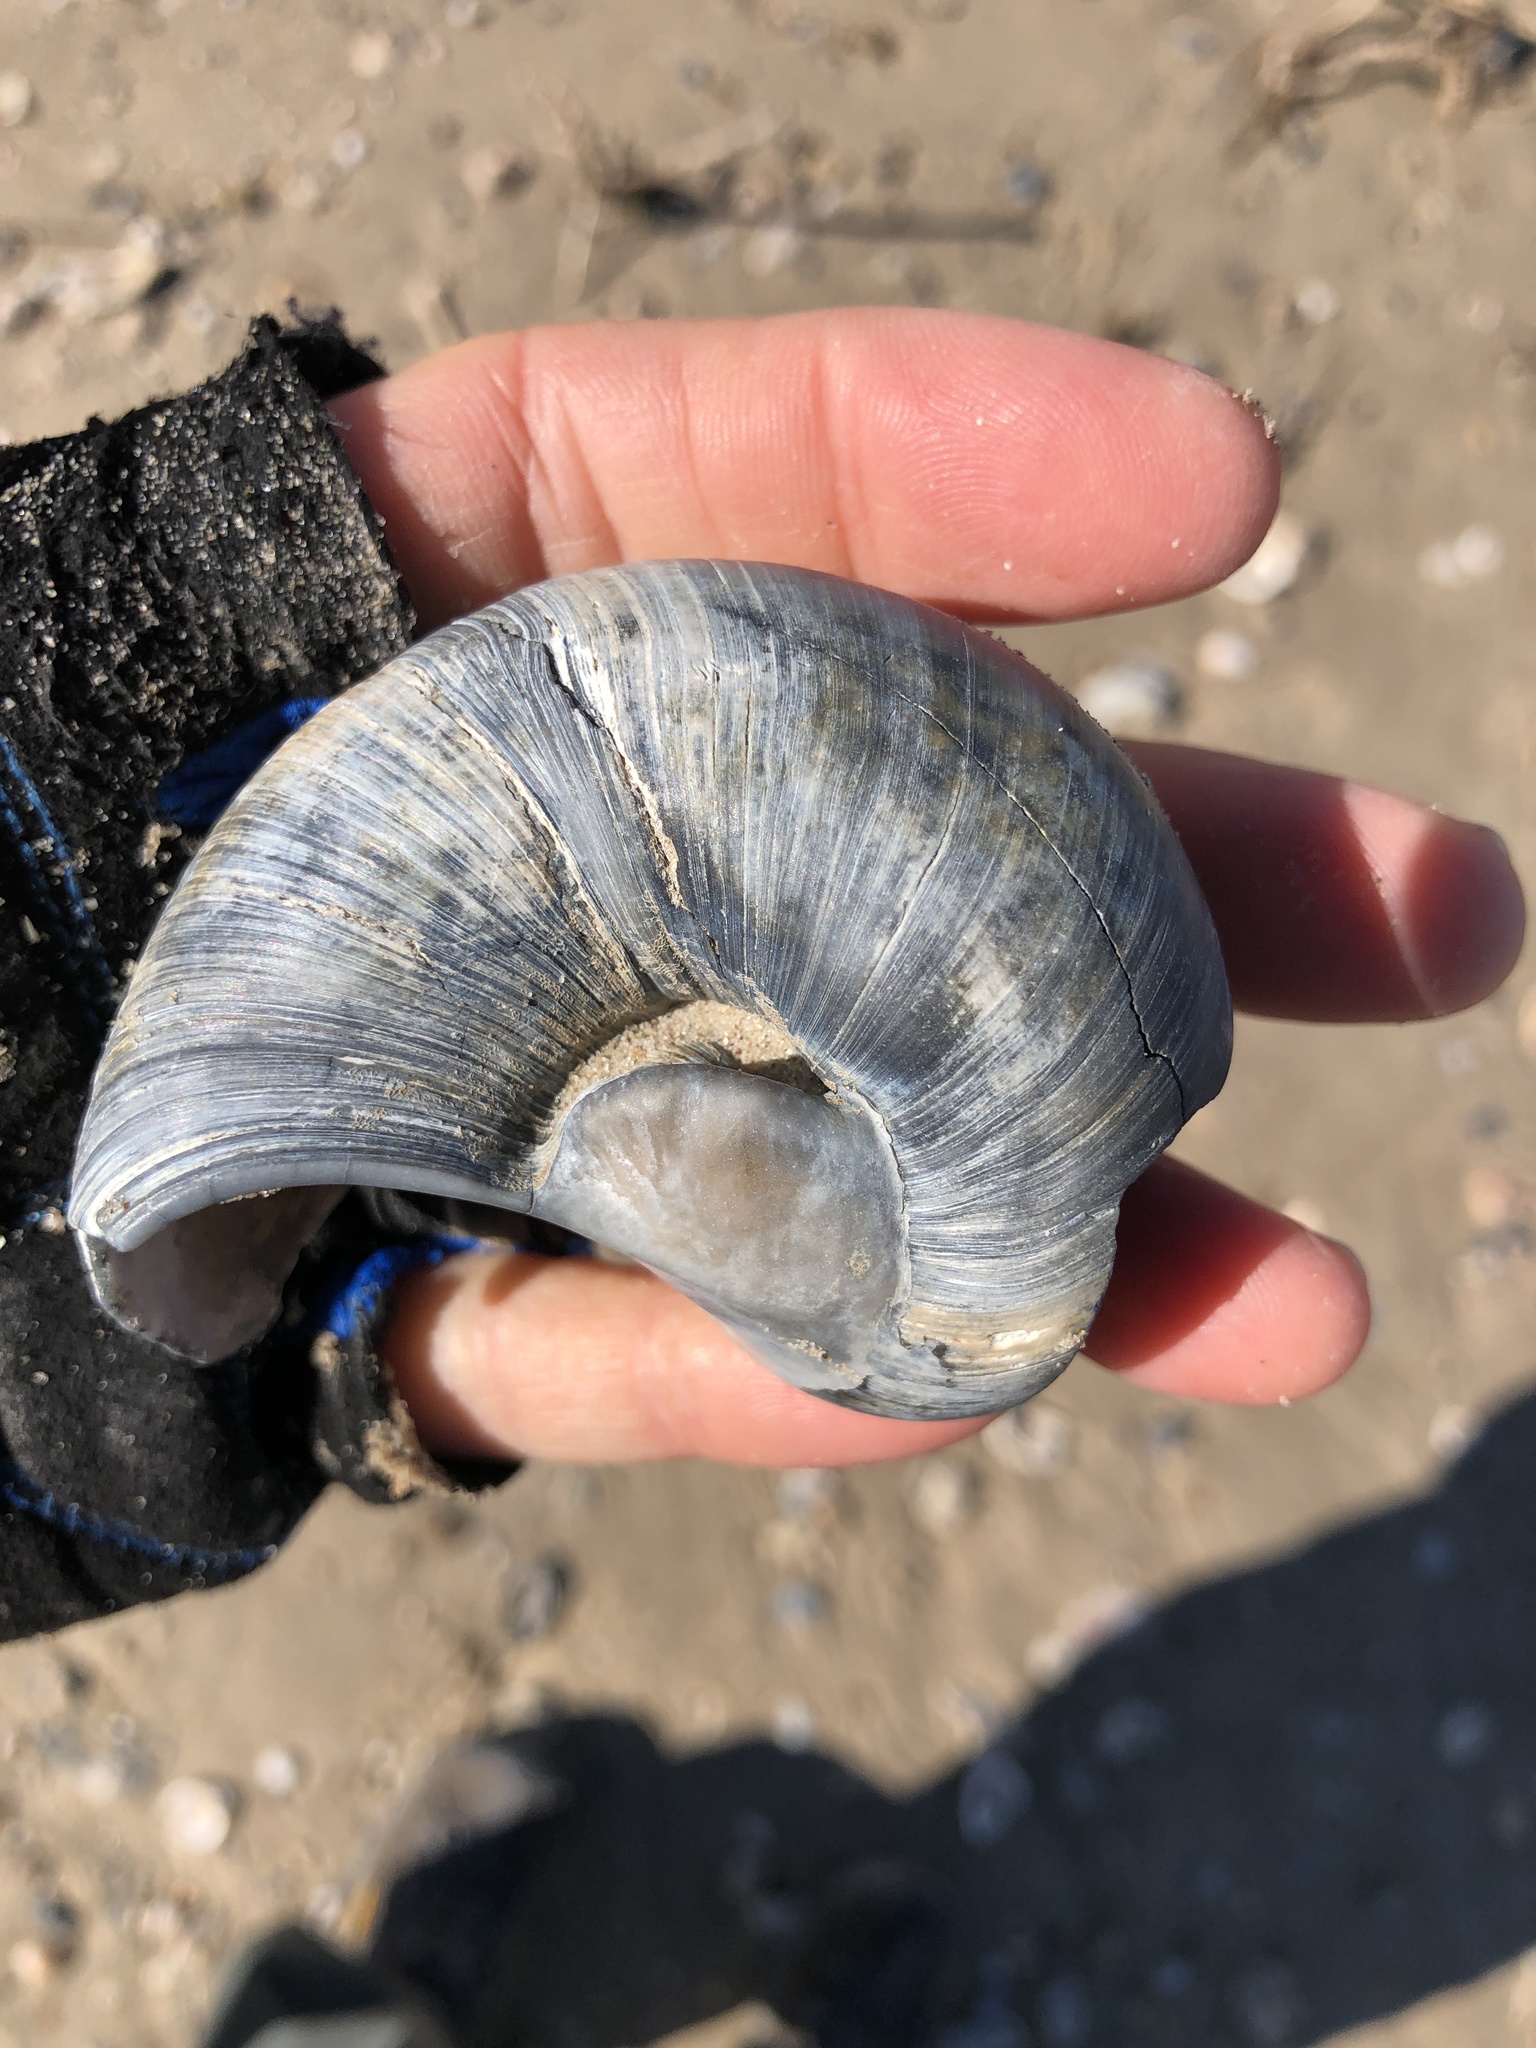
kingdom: Animalia
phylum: Mollusca
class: Gastropoda
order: Littorinimorpha
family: Naticidae
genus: Neverita
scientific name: Neverita duplicata
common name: Lobed moonsnail
